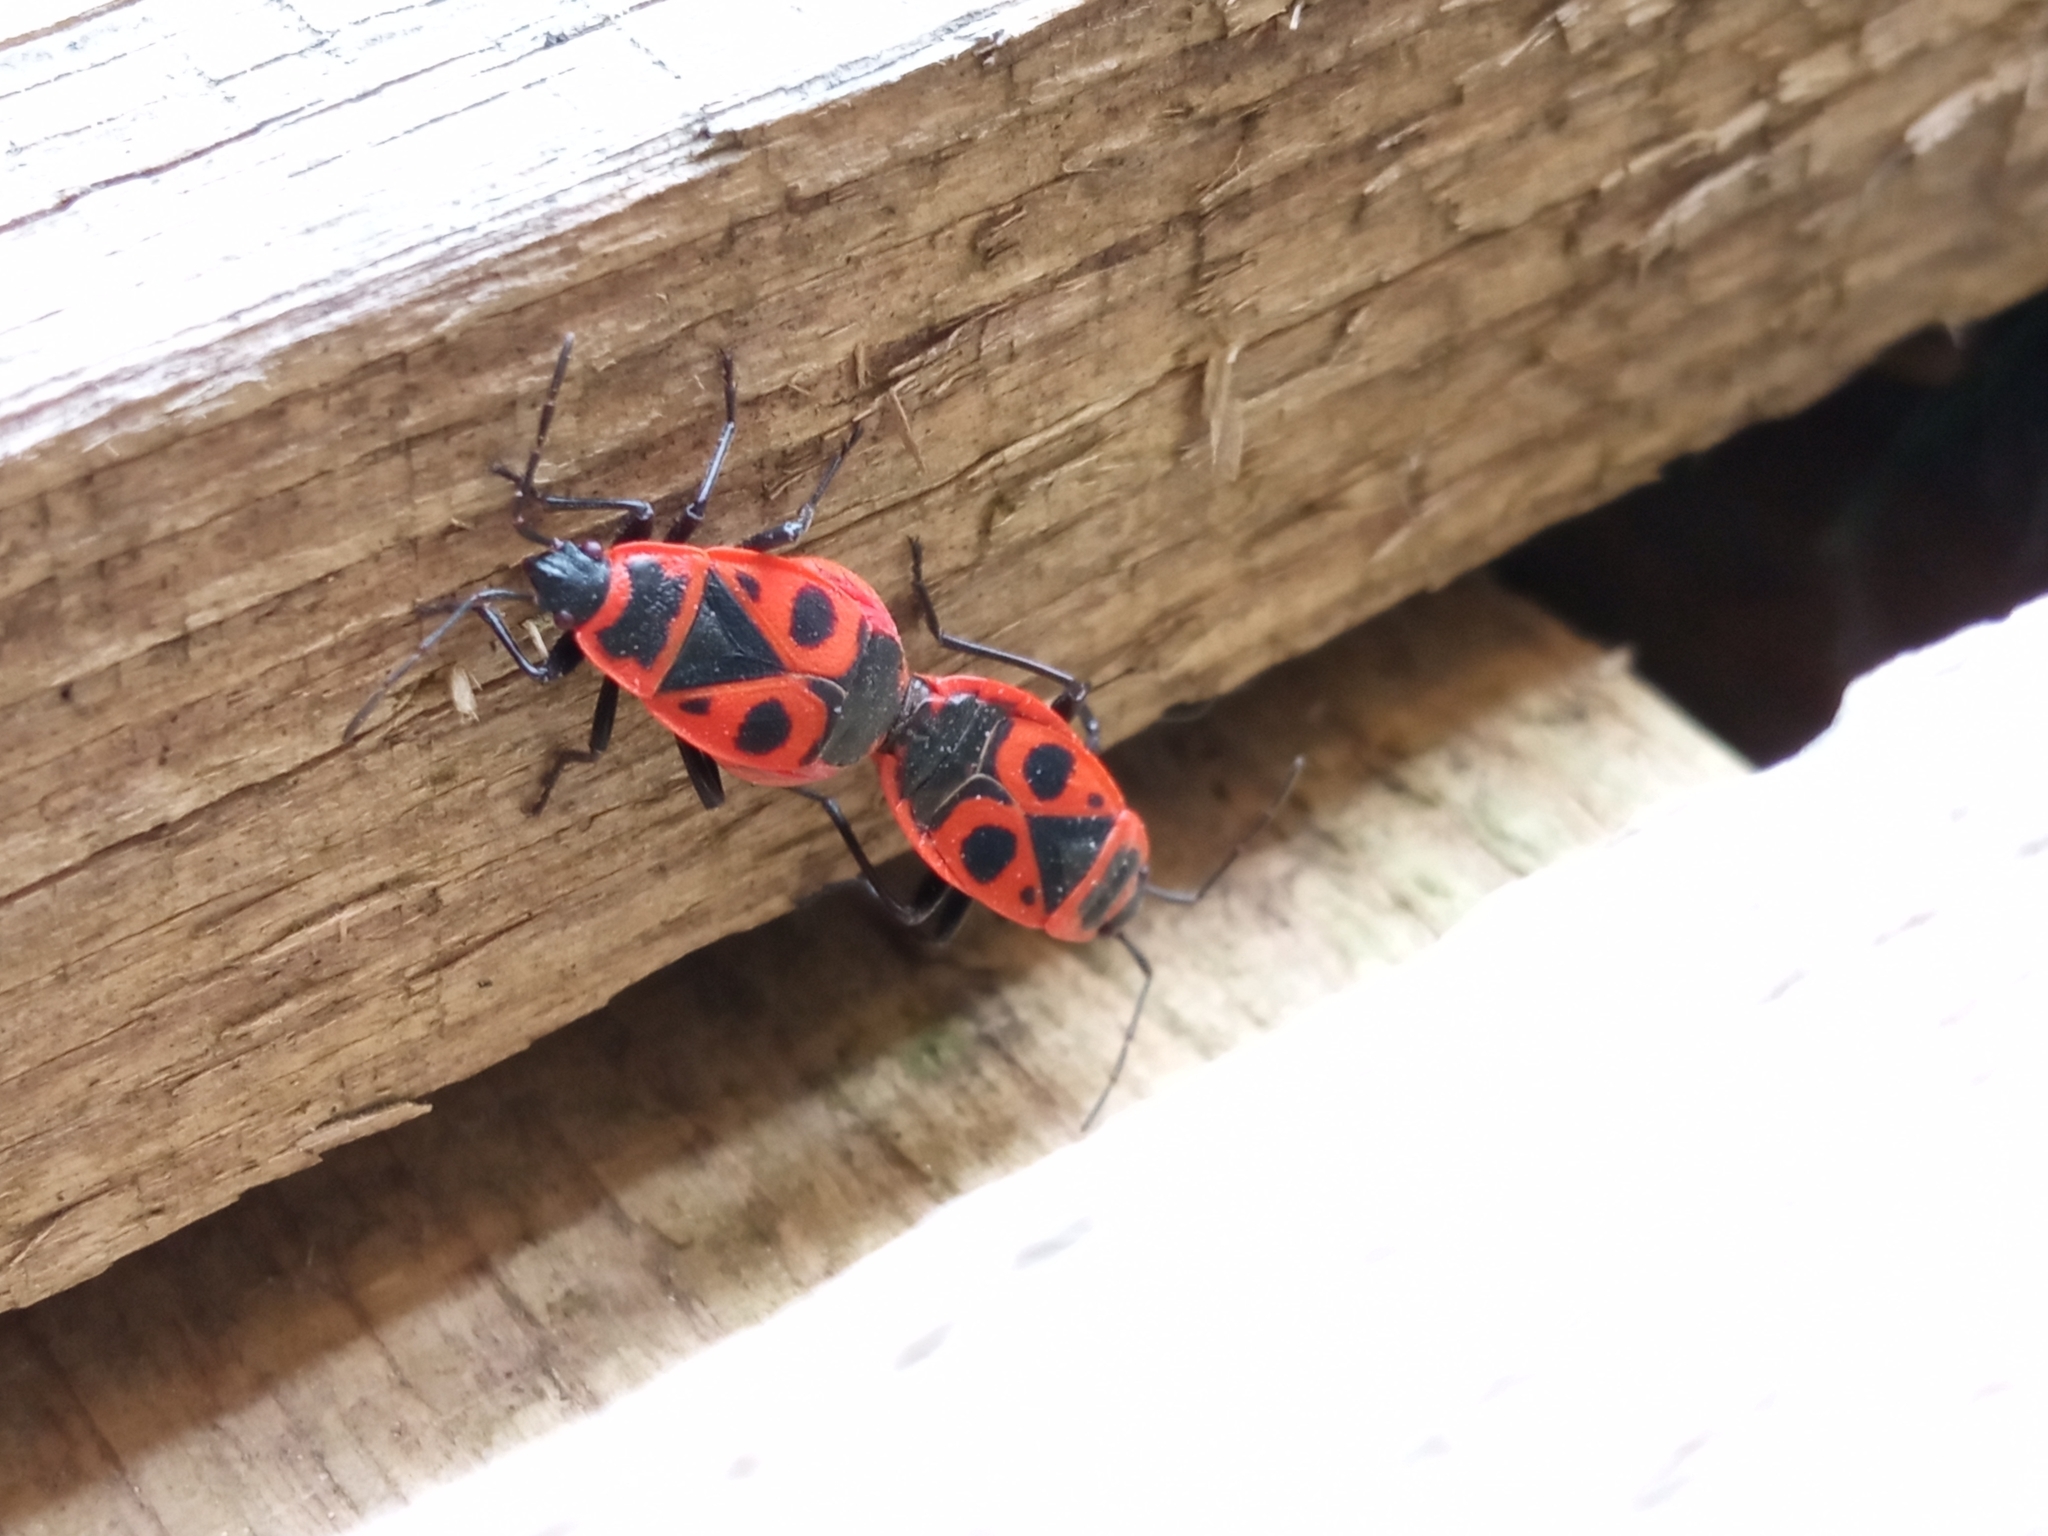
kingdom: Animalia
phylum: Arthropoda
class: Insecta
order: Hemiptera
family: Pyrrhocoridae
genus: Pyrrhocoris
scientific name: Pyrrhocoris apterus
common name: Firebug
